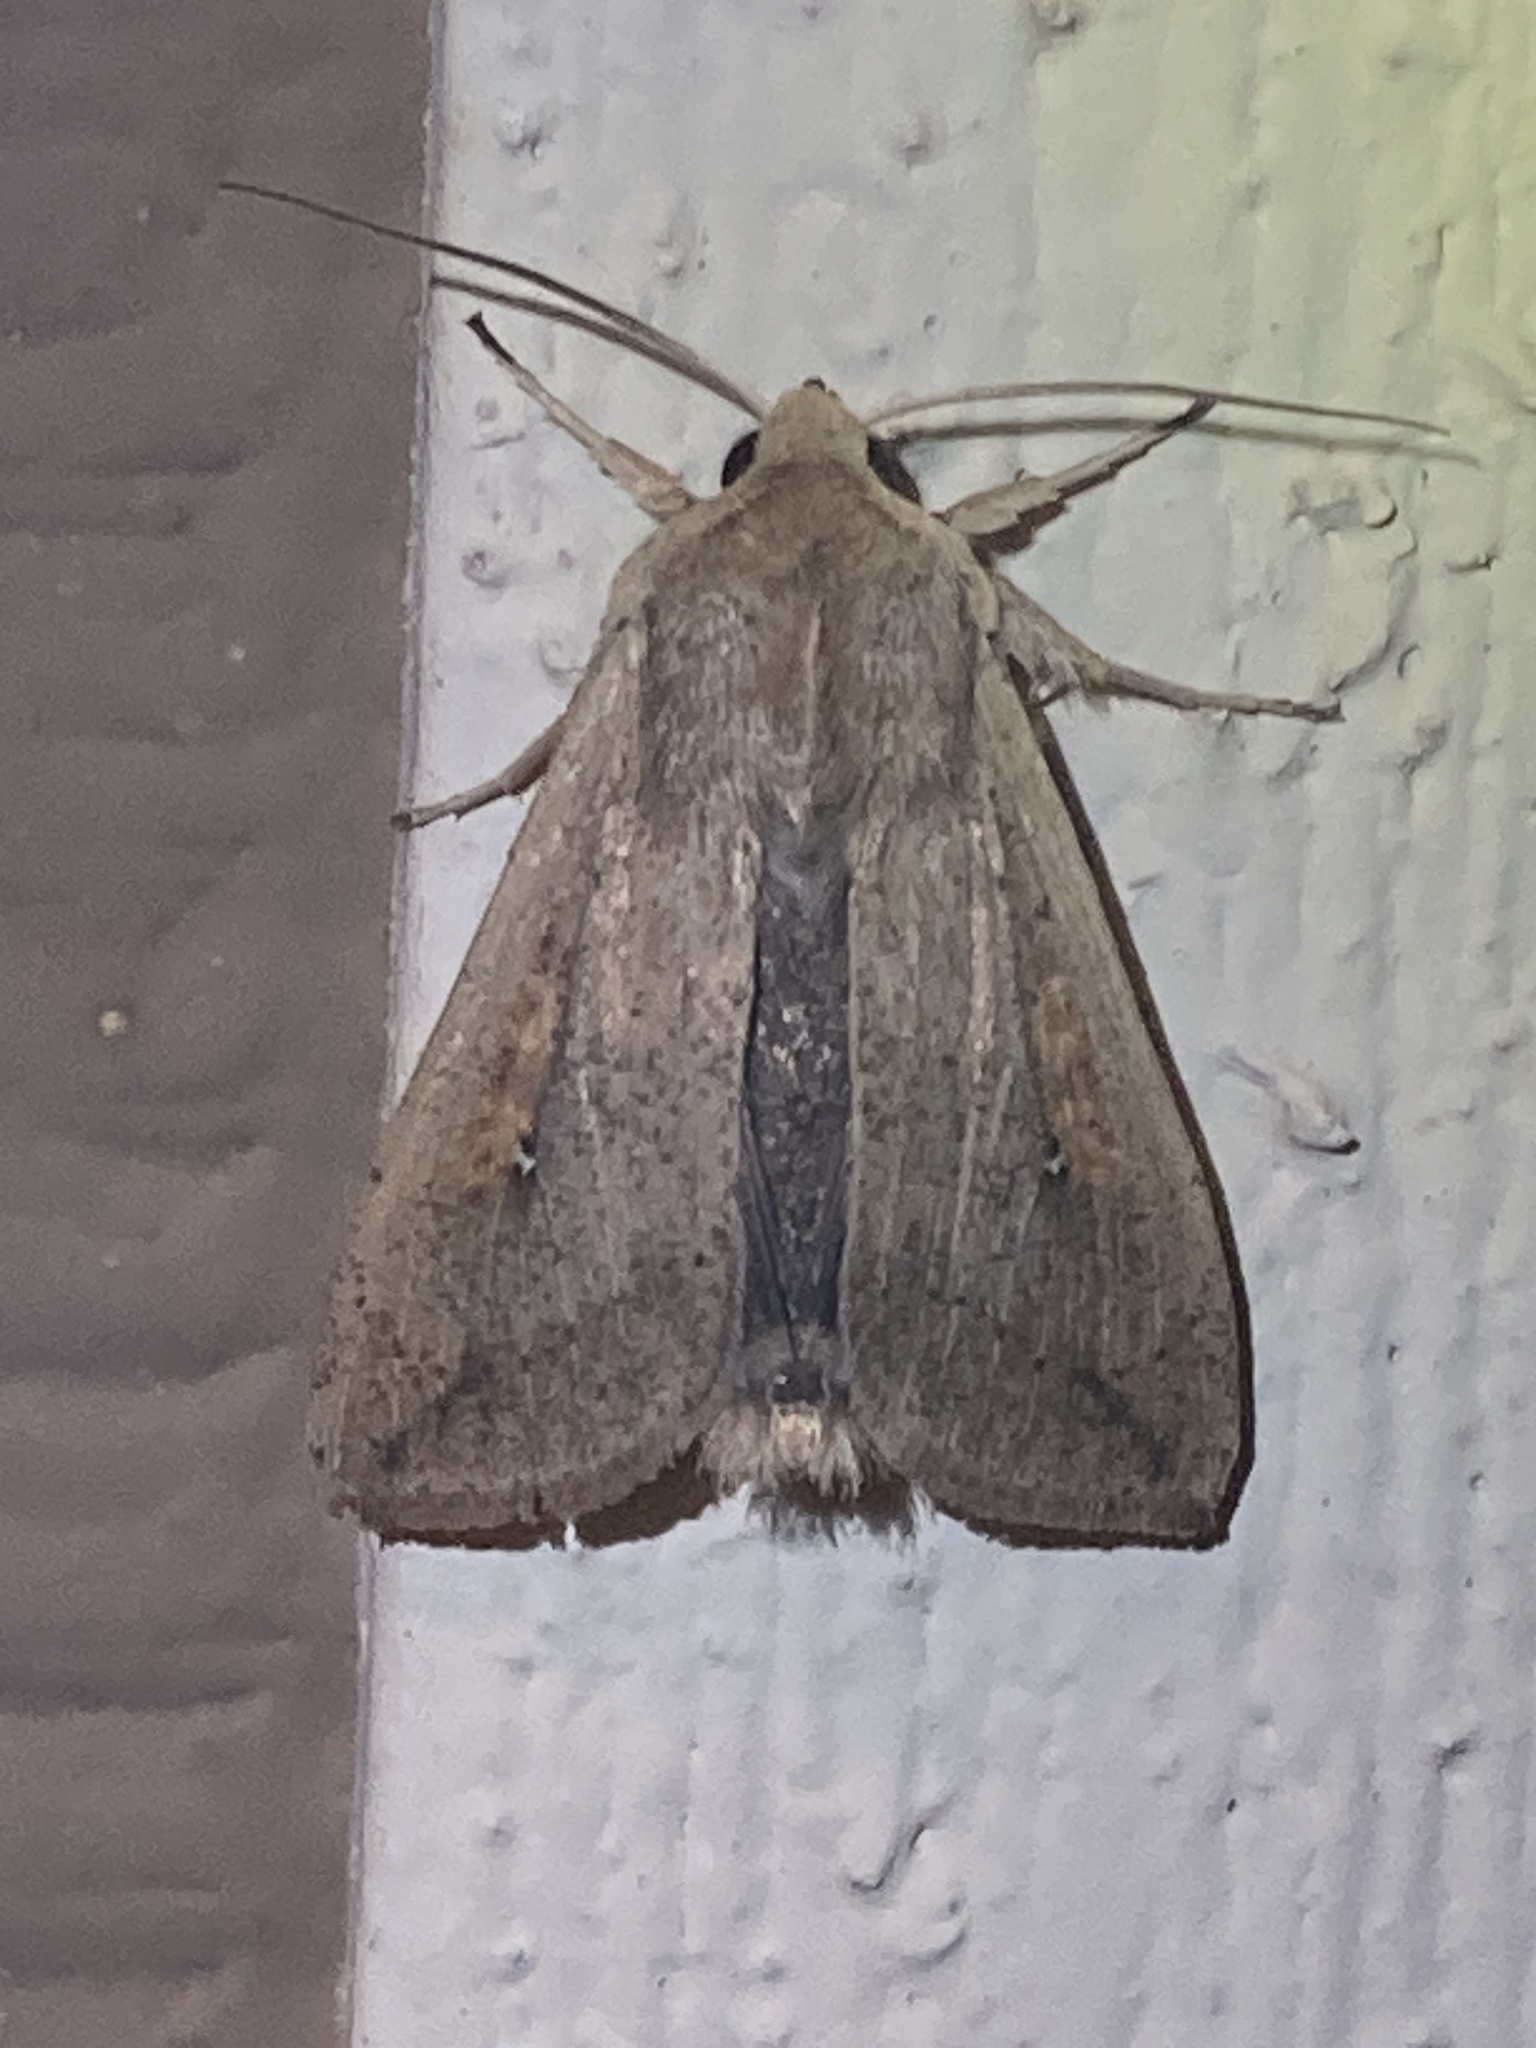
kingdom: Animalia
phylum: Arthropoda
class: Insecta
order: Lepidoptera
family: Noctuidae
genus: Mythimna
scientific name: Mythimna unipuncta
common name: White-speck
